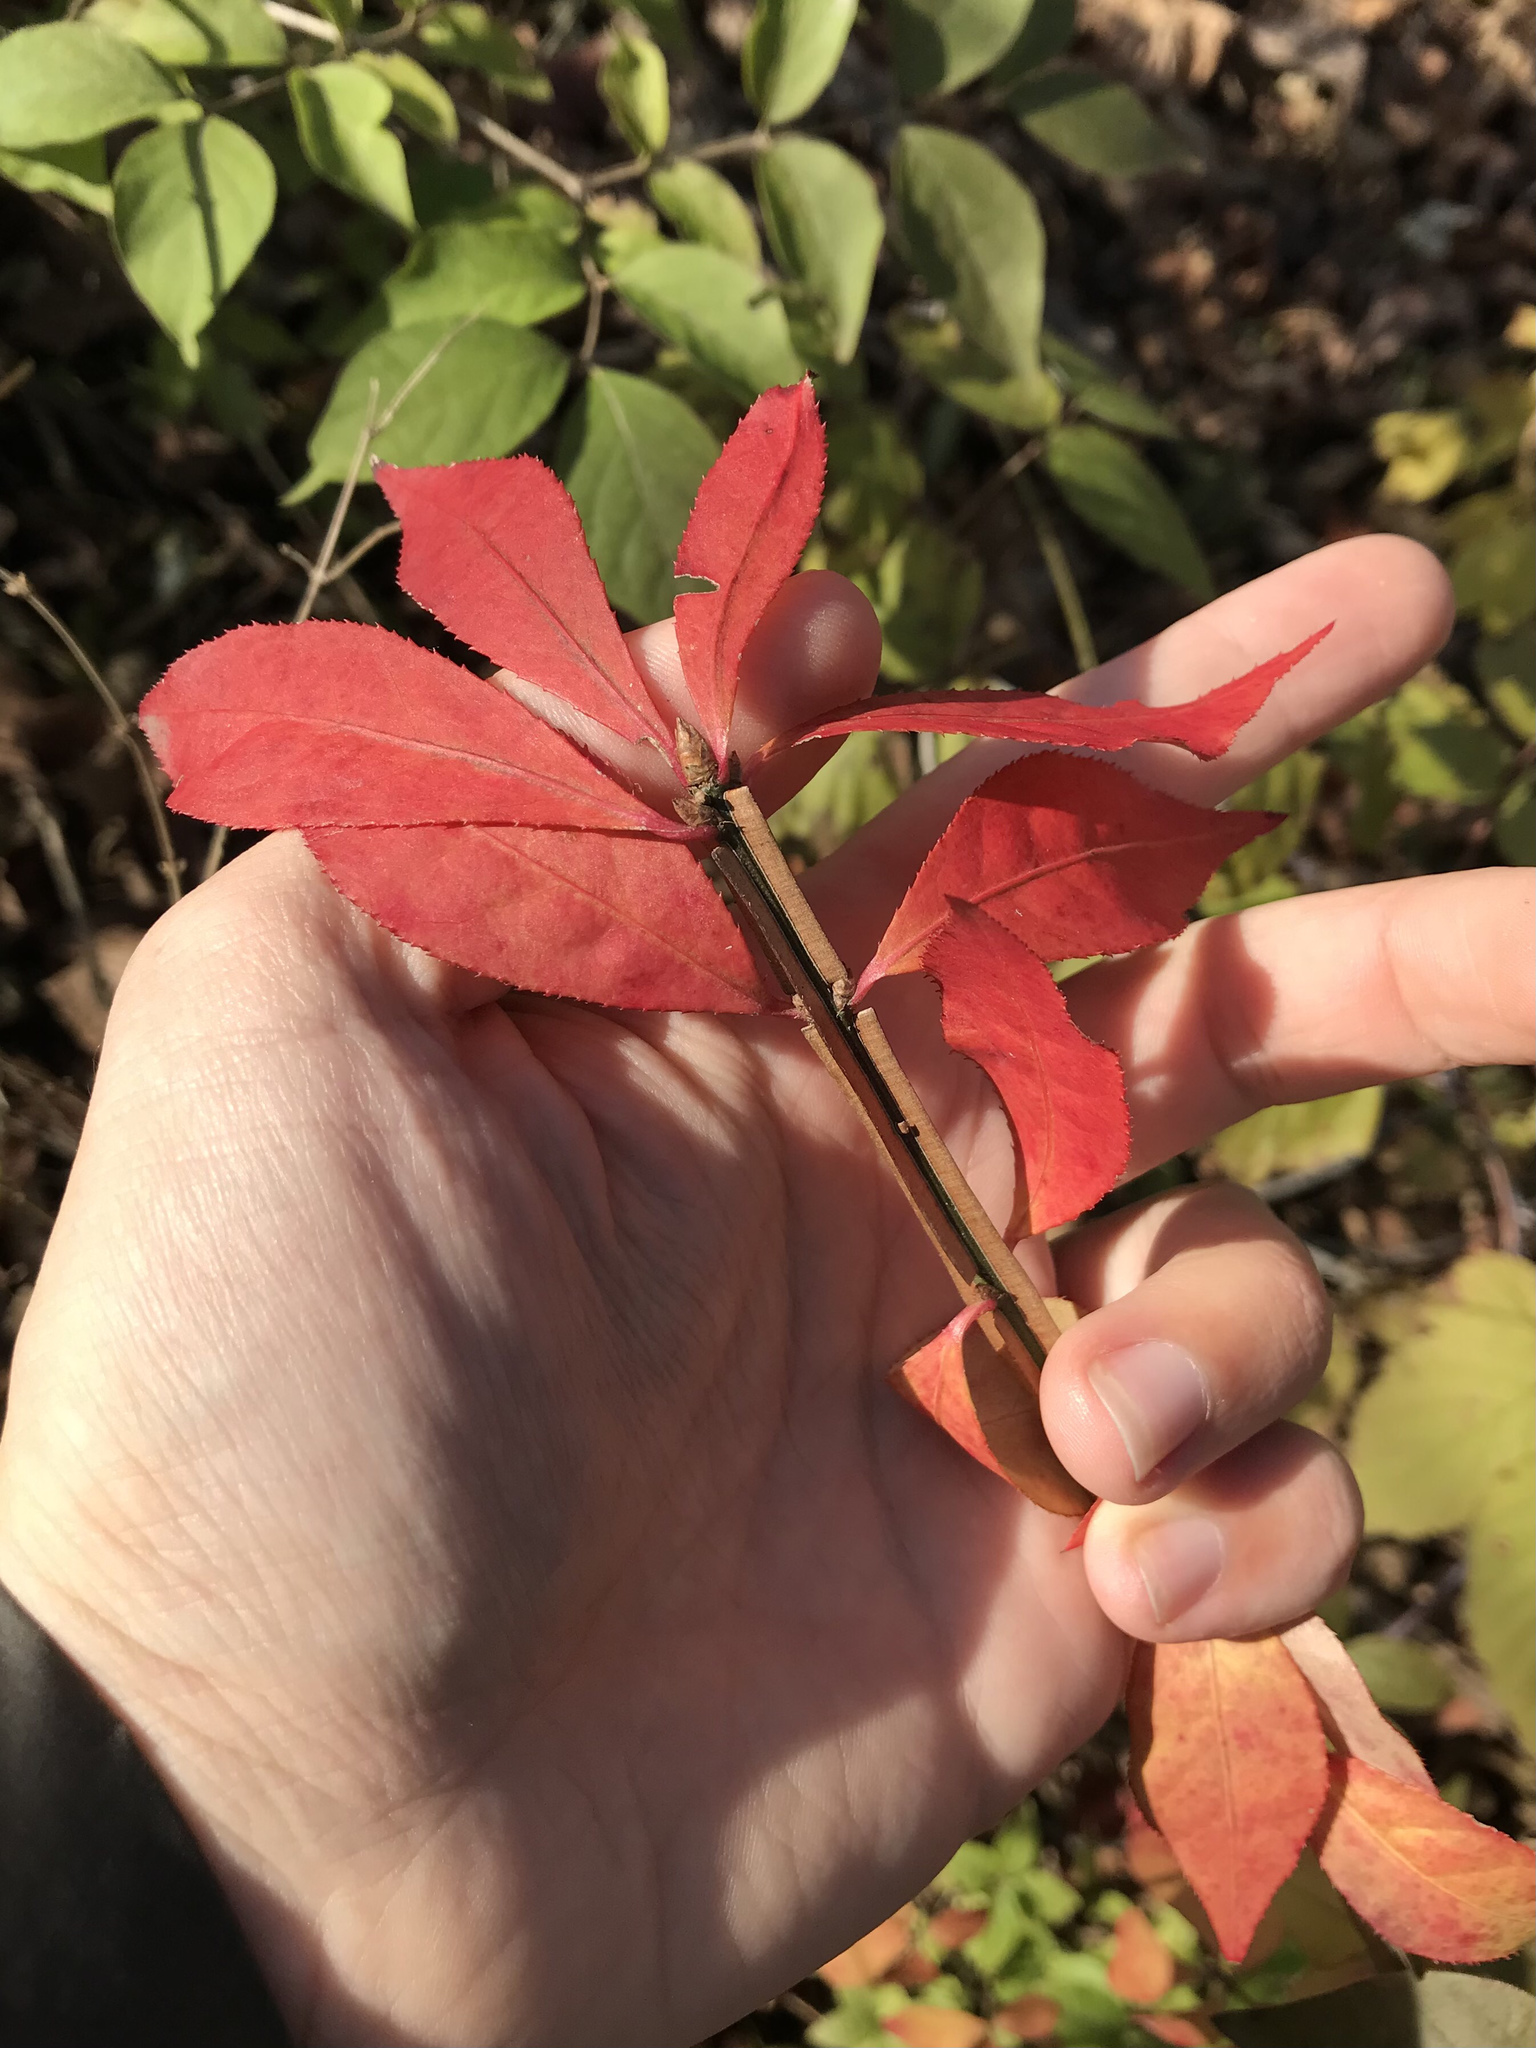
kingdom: Plantae
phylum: Tracheophyta
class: Magnoliopsida
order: Celastrales
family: Celastraceae
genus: Euonymus
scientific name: Euonymus alatus
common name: Winged euonymus
